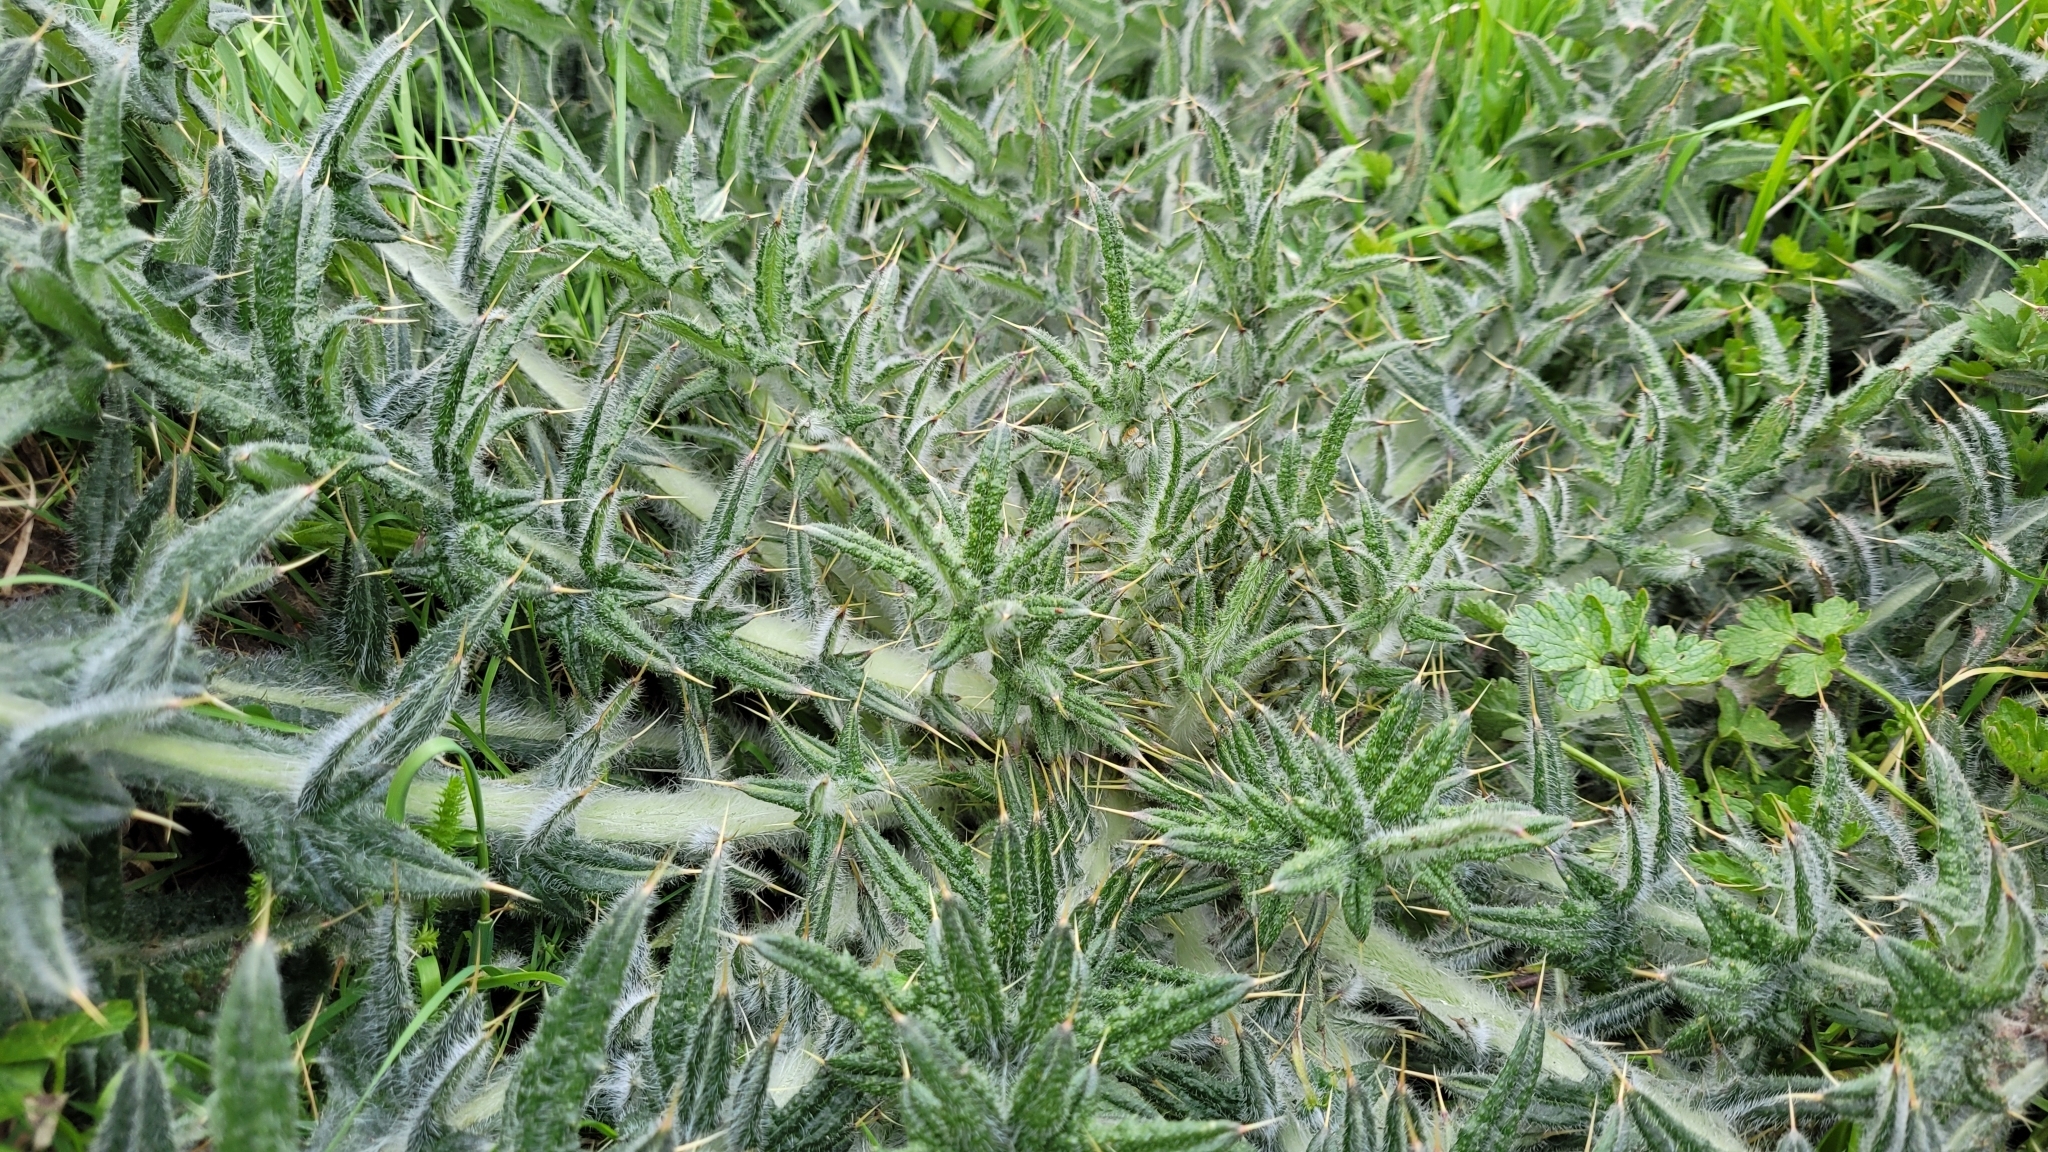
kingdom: Plantae
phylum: Tracheophyta
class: Magnoliopsida
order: Asterales
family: Asteraceae
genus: Cirsium
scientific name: Cirsium vulgare
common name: Bull thistle
